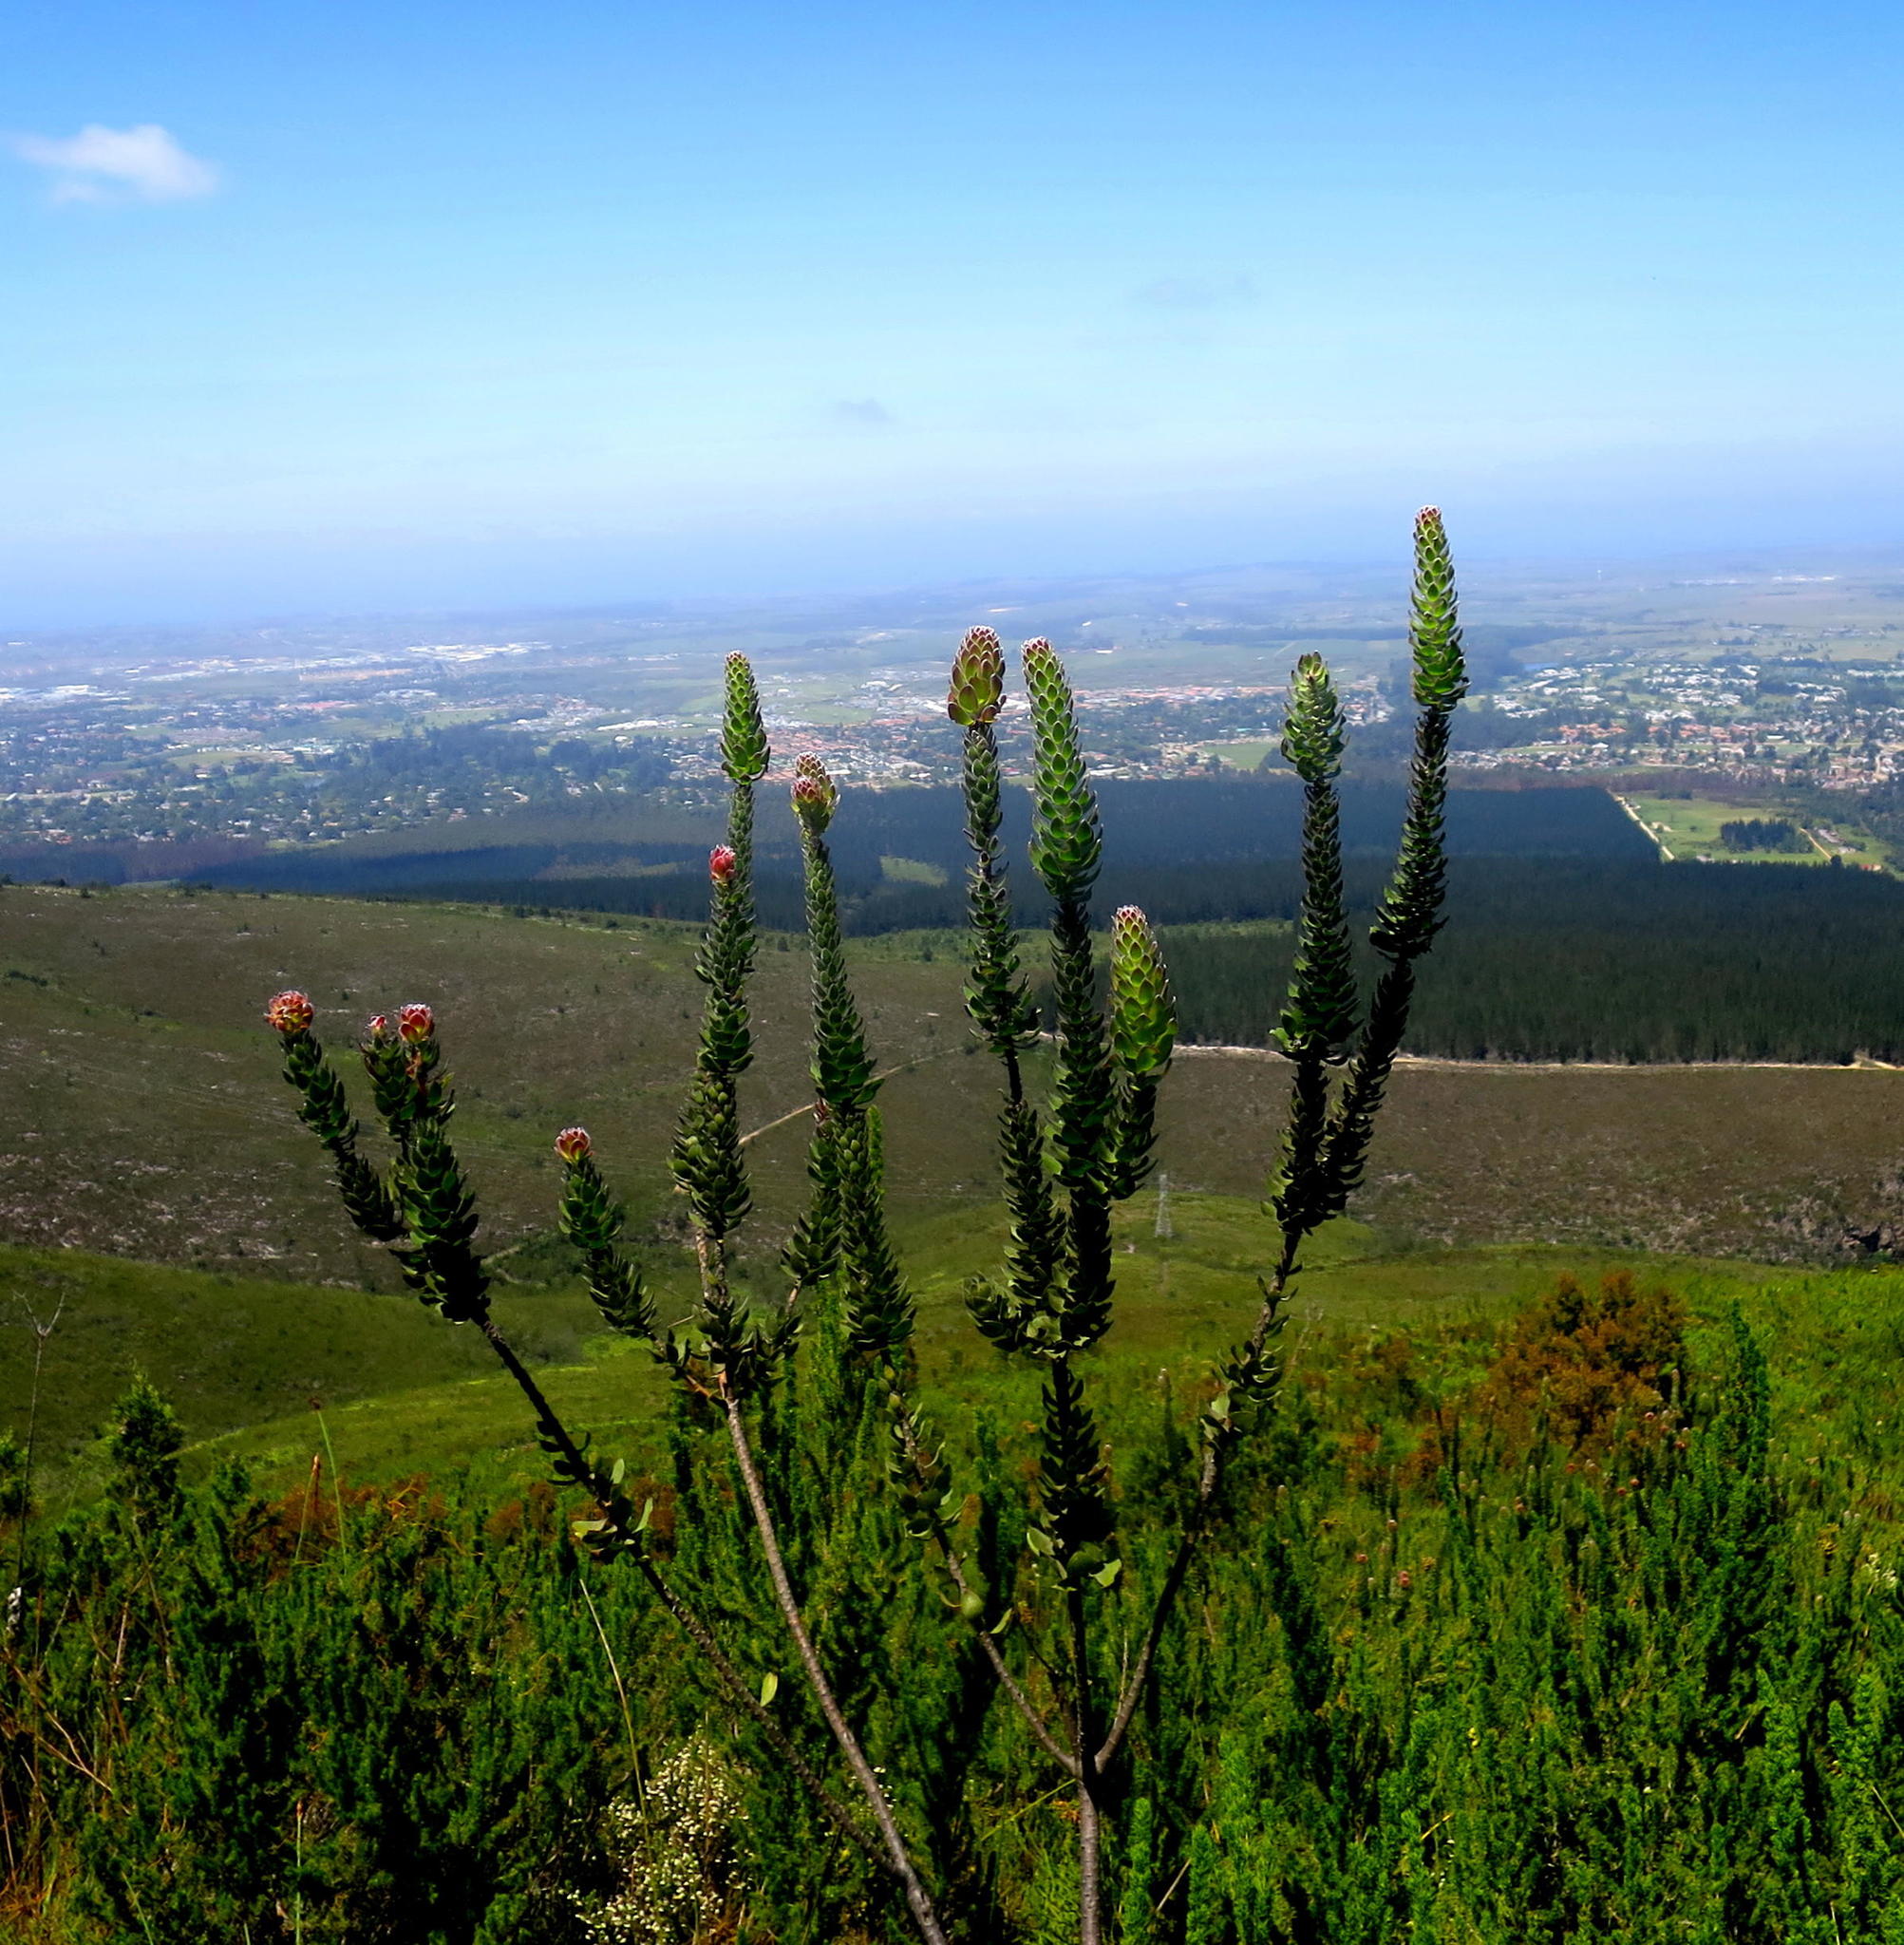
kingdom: Plantae
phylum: Tracheophyta
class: Magnoliopsida
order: Proteales
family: Proteaceae
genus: Mimetes
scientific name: Mimetes pauciflora
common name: Three-flowered pagoda
